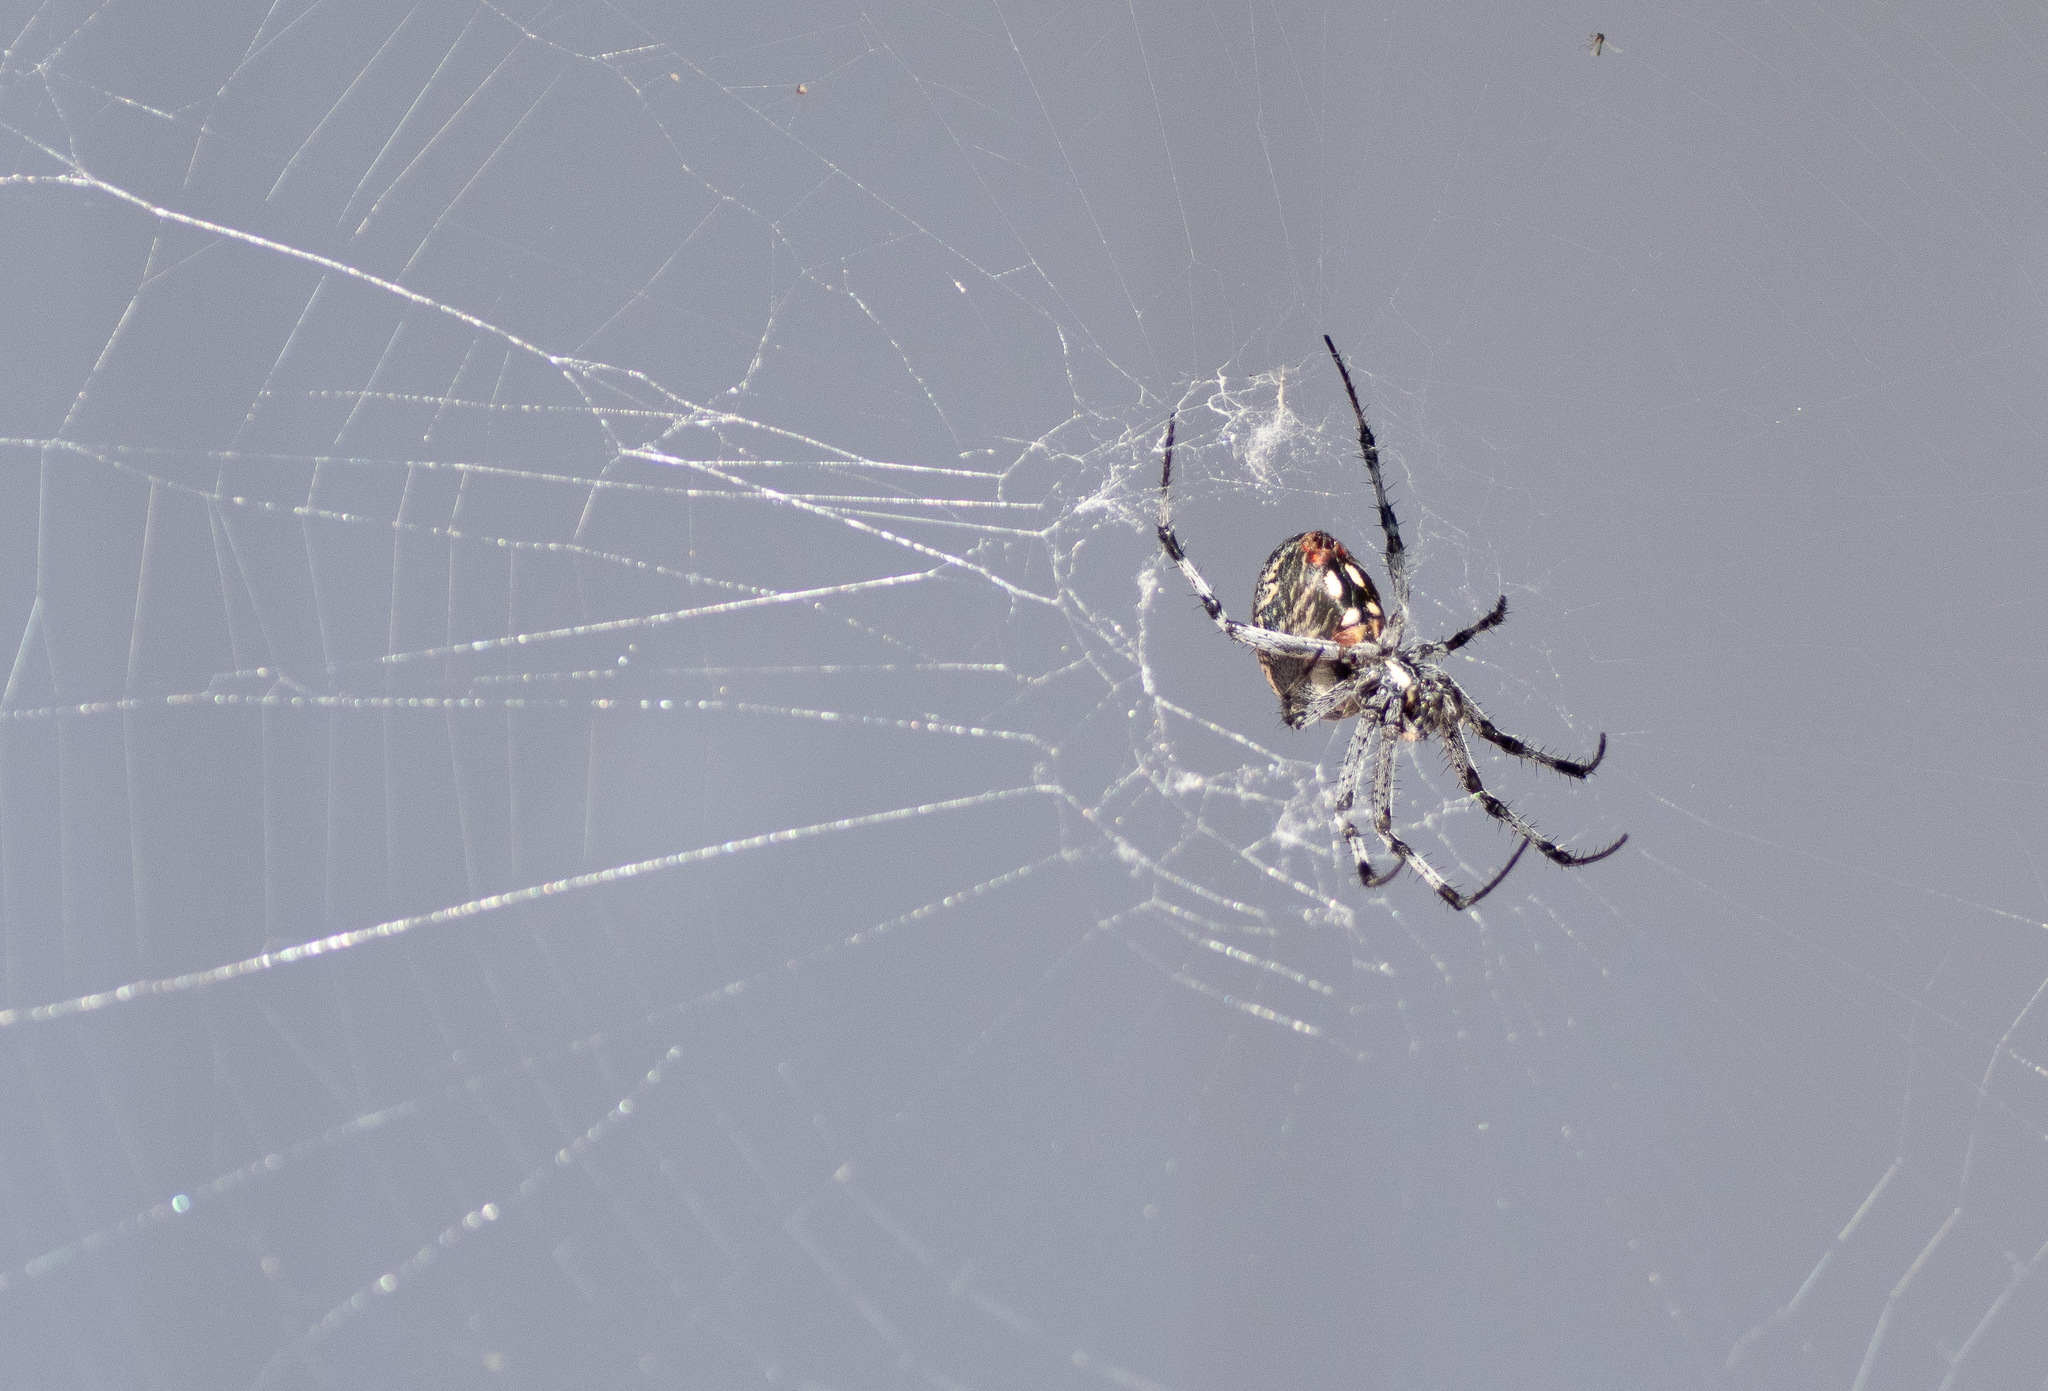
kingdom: Animalia
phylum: Arthropoda
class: Arachnida
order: Araneae
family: Araneidae
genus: Neoscona
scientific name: Neoscona oaxacensis
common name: Orb weavers
